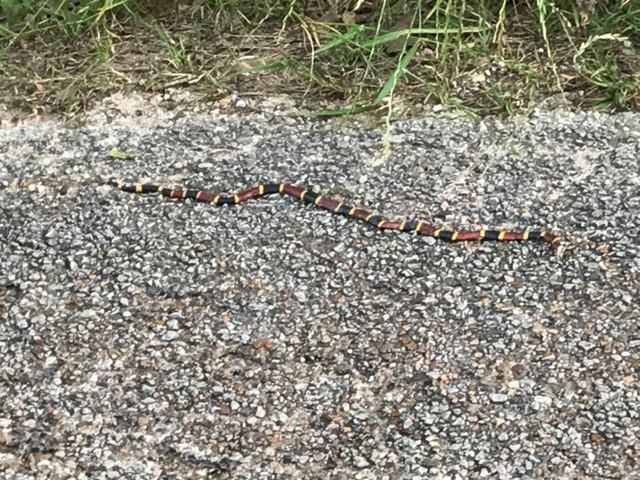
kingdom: Animalia
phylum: Chordata
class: Squamata
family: Elapidae
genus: Micrurus
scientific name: Micrurus tener
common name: Texas coral snake
